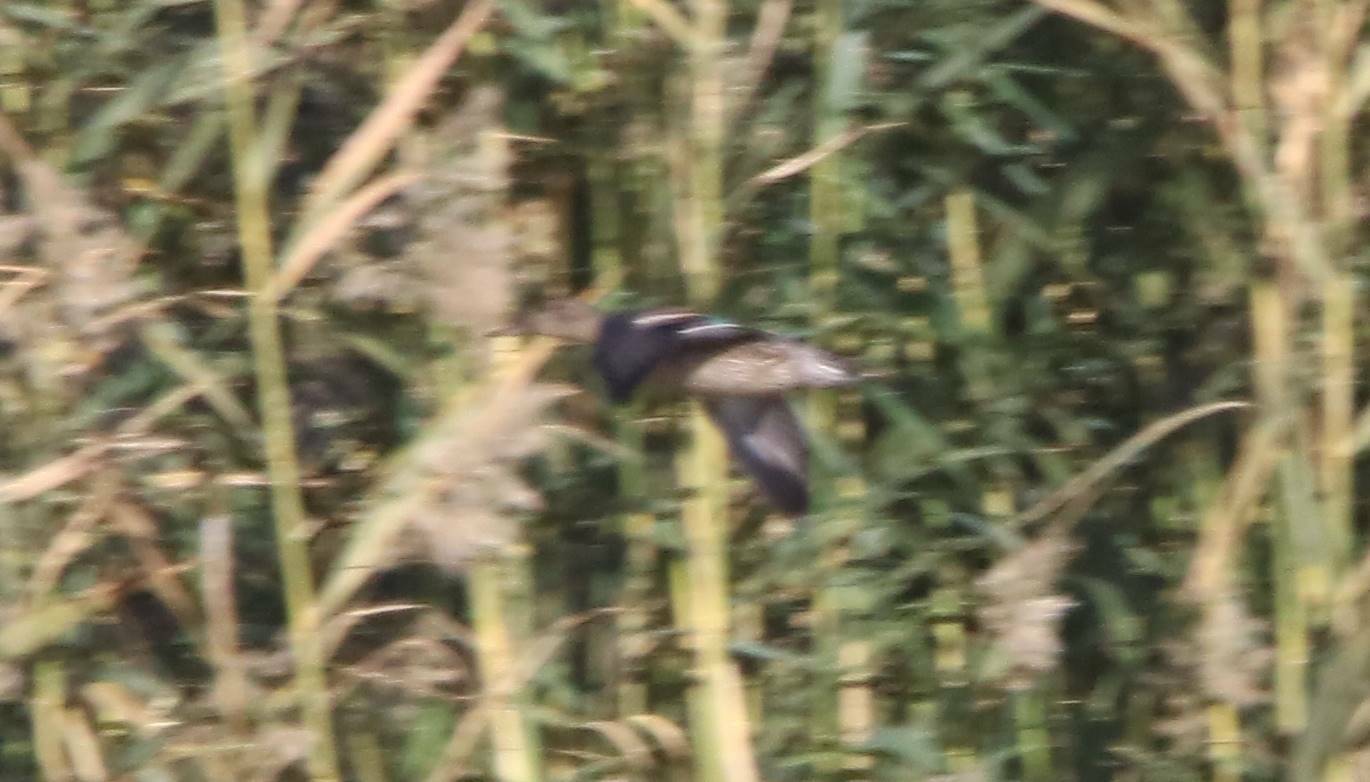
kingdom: Animalia
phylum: Chordata
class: Aves
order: Anseriformes
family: Anatidae
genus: Anas
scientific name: Anas crecca
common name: Eurasian teal
